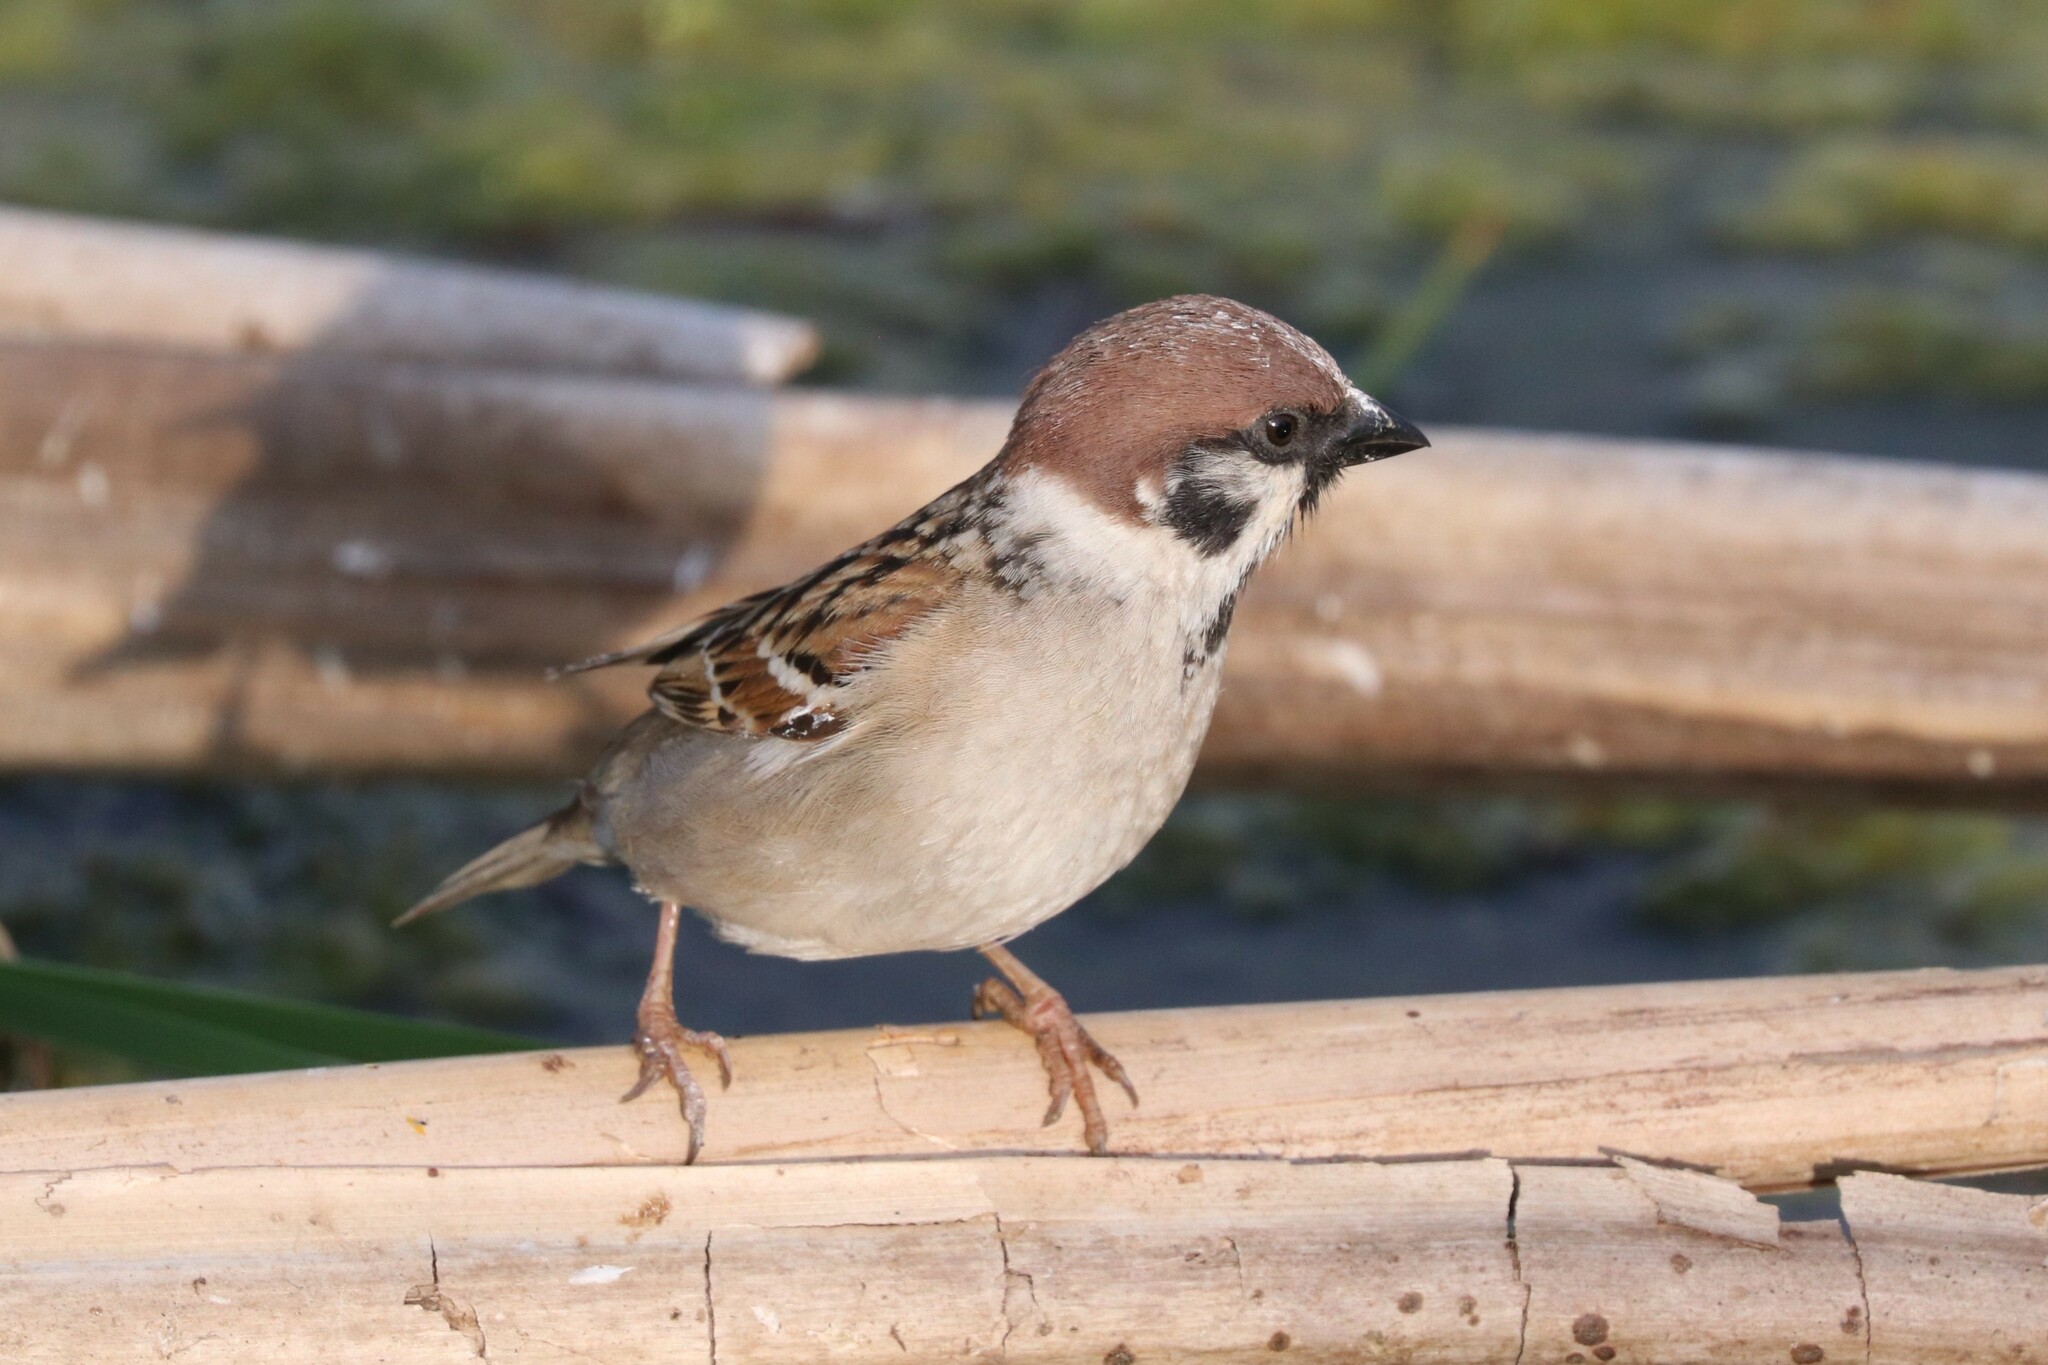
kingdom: Animalia
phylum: Chordata
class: Aves
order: Passeriformes
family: Passeridae
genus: Passer
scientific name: Passer montanus
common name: Eurasian tree sparrow
